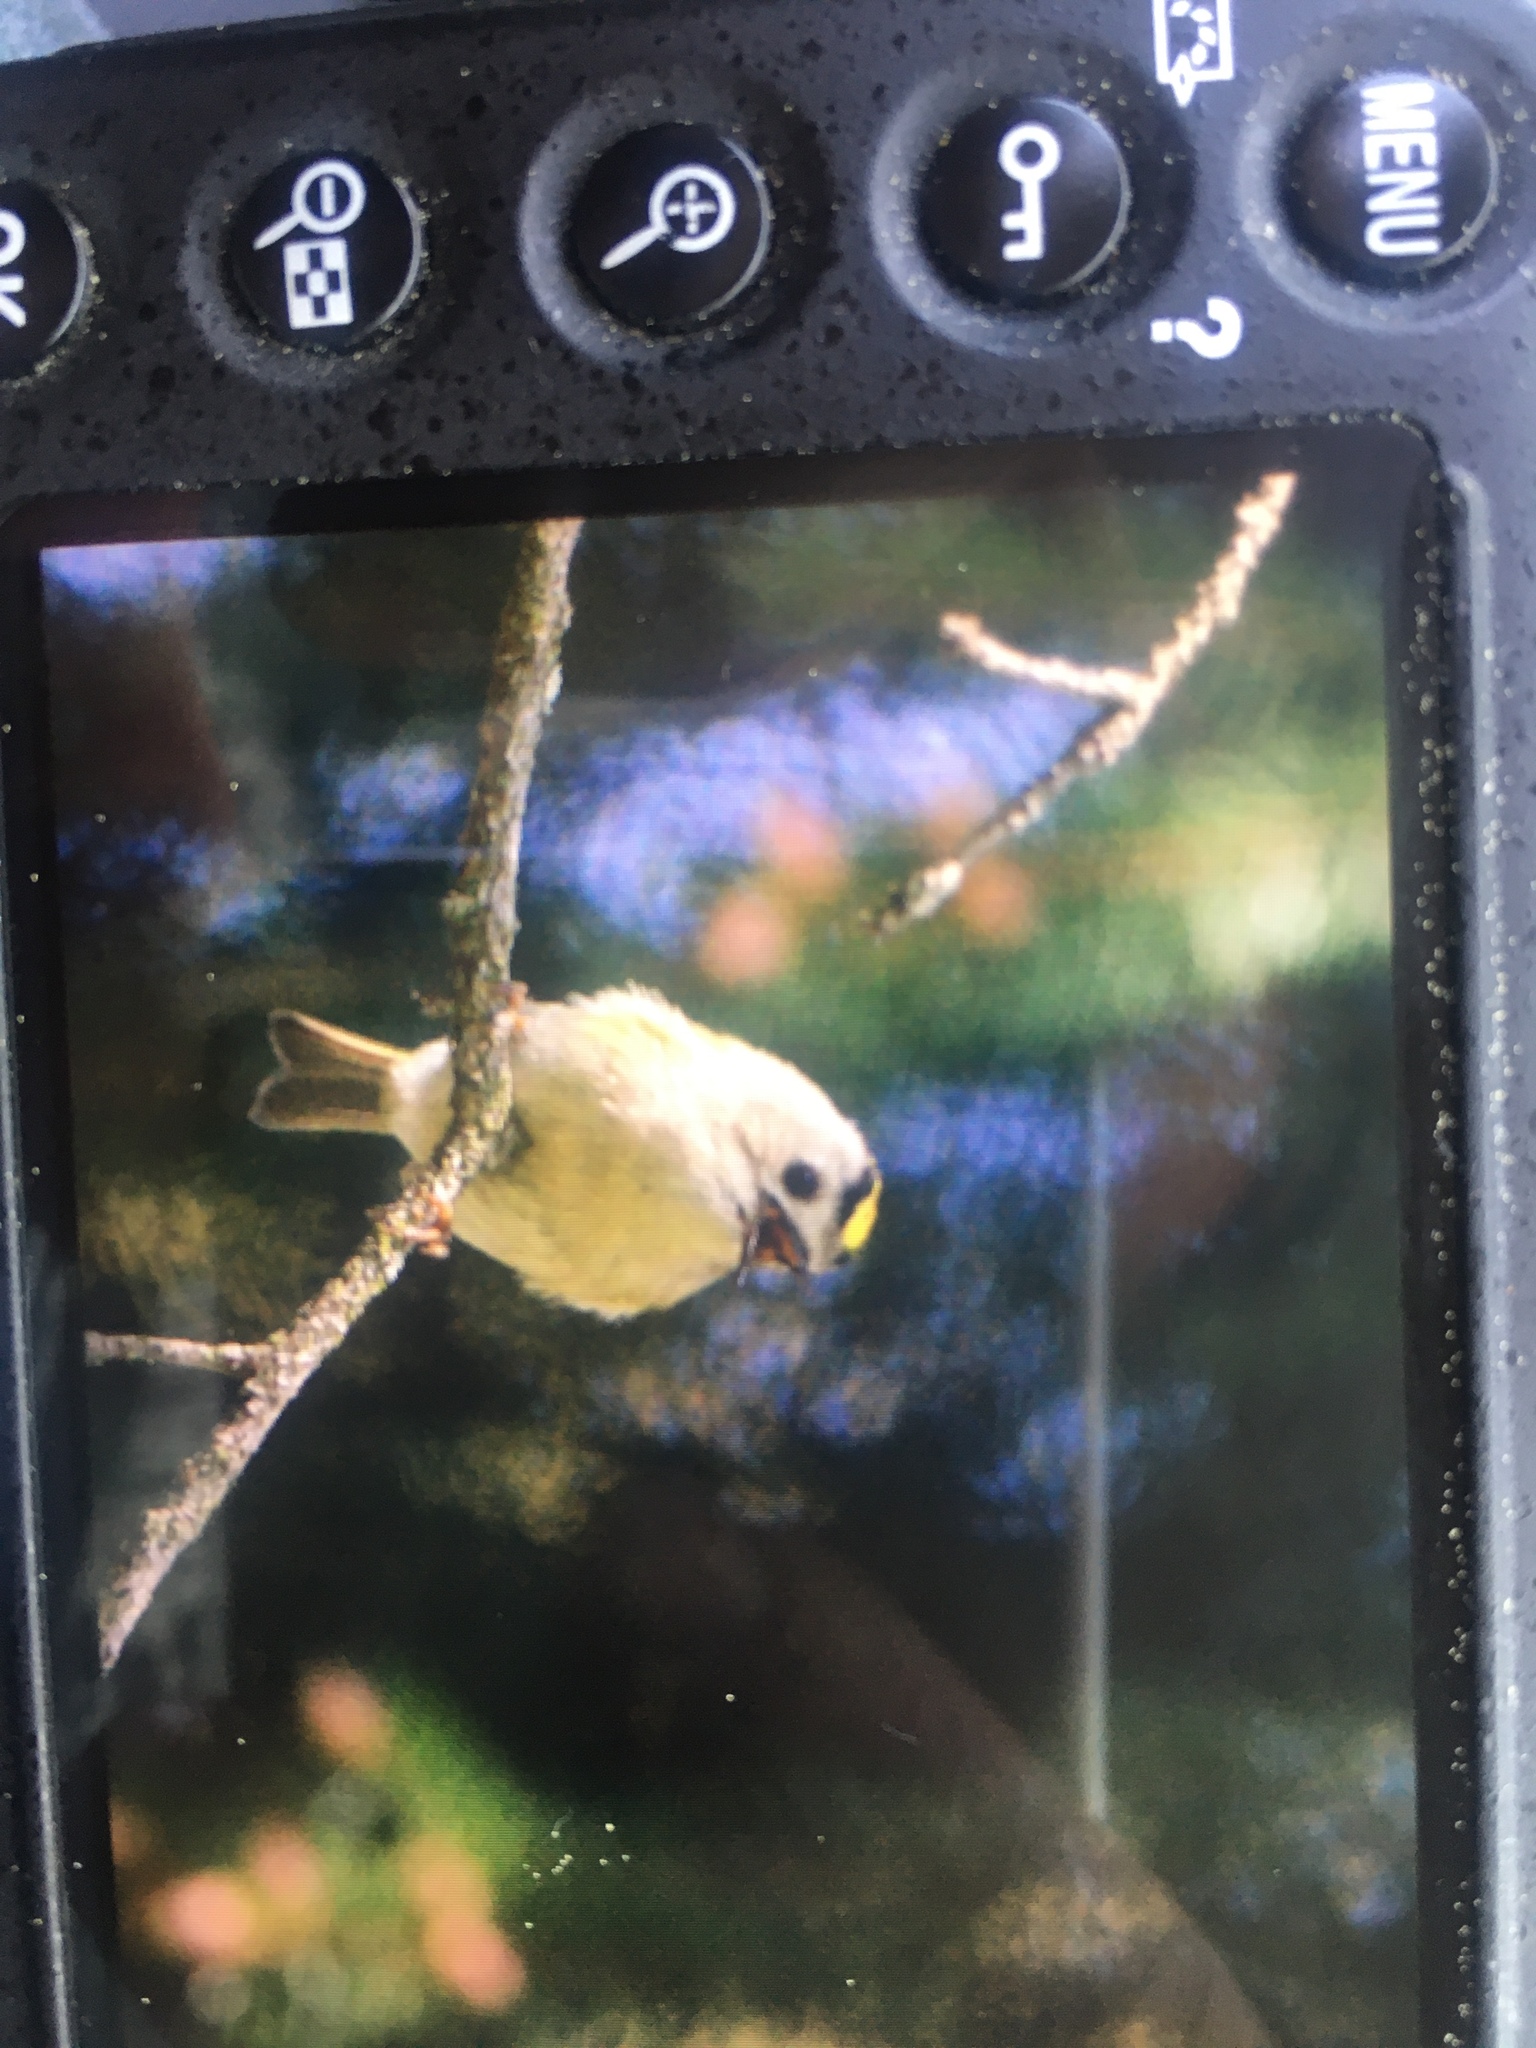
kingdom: Animalia
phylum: Chordata
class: Aves
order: Passeriformes
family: Regulidae
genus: Regulus
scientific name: Regulus regulus
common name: Goldcrest
